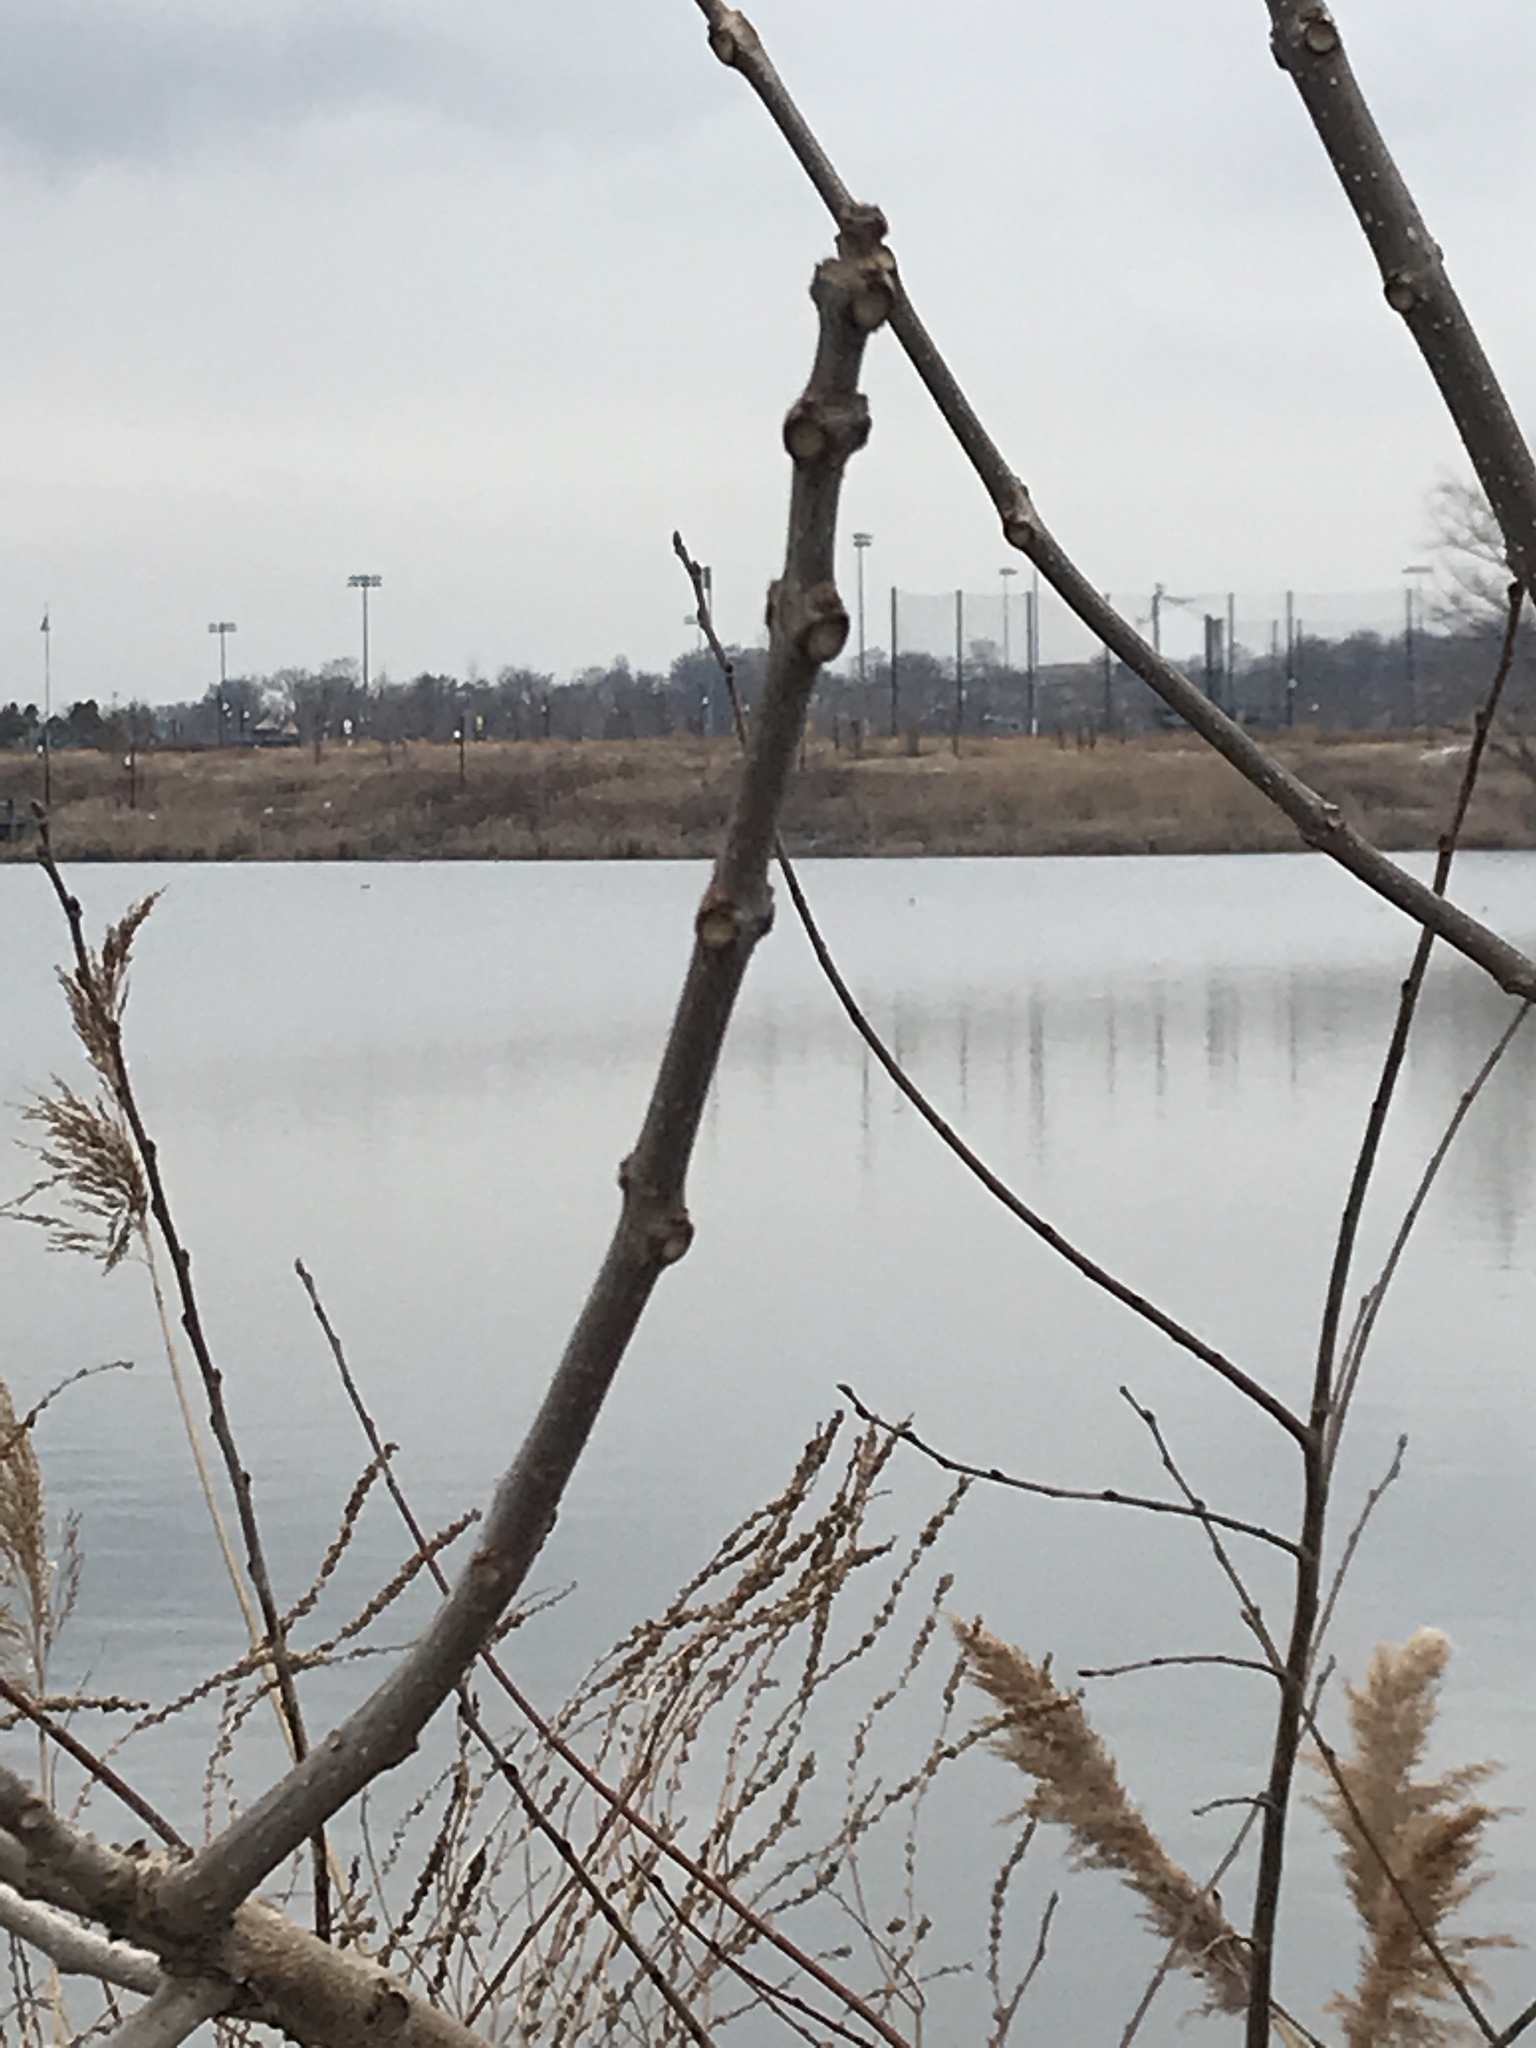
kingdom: Plantae
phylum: Tracheophyta
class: Magnoliopsida
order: Lamiales
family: Bignoniaceae
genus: Catalpa
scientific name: Catalpa
